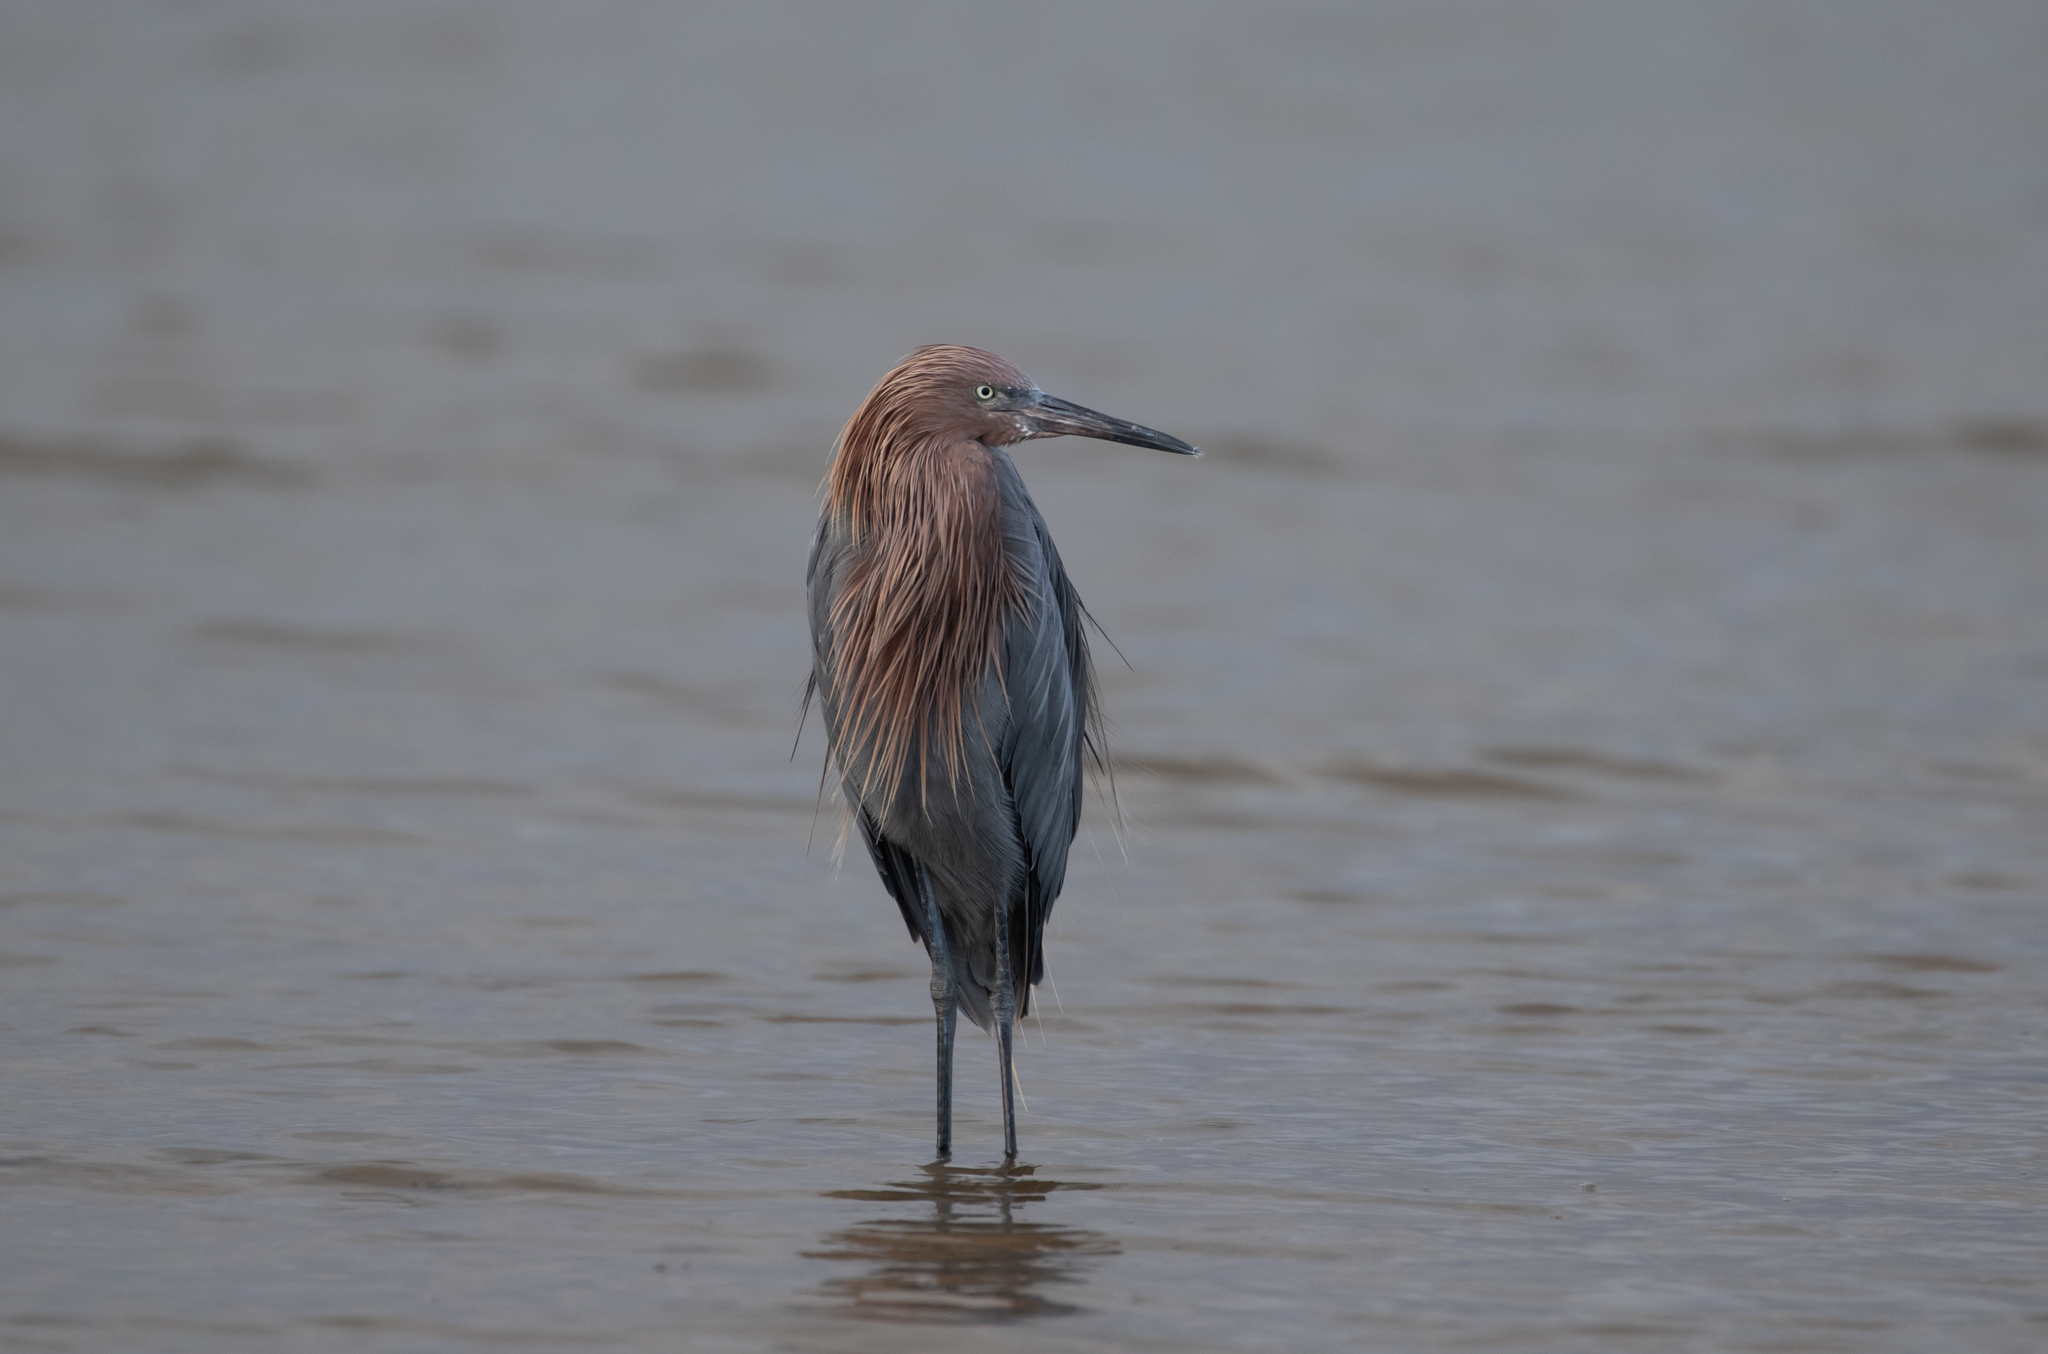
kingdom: Animalia
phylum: Chordata
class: Aves
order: Pelecaniformes
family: Ardeidae
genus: Egretta
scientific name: Egretta rufescens
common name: Reddish egret
